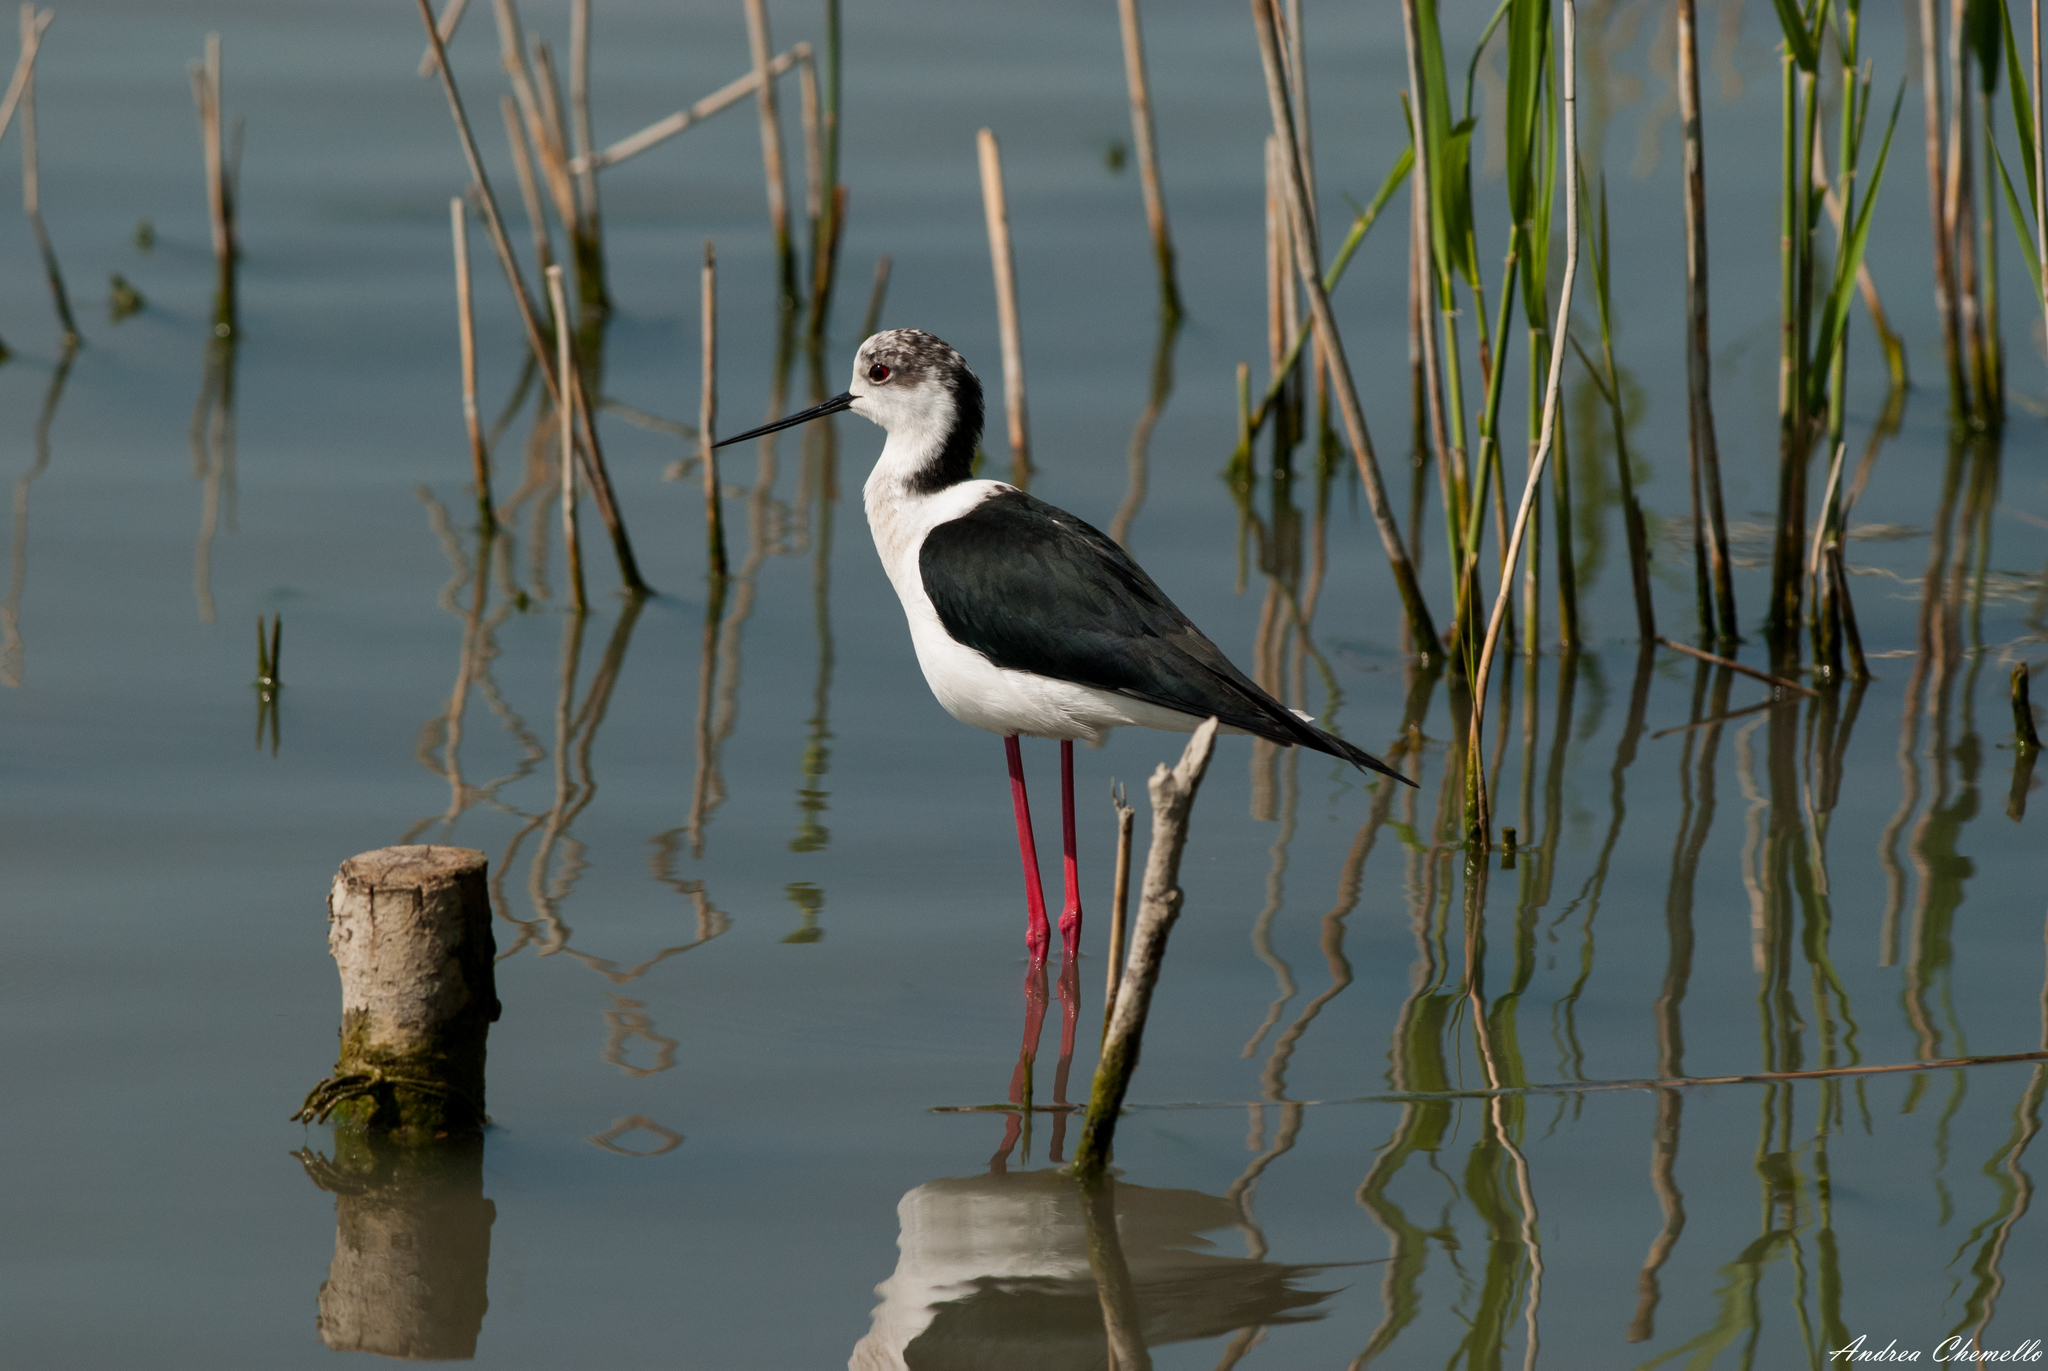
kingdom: Animalia
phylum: Chordata
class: Aves
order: Charadriiformes
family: Recurvirostridae
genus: Himantopus
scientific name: Himantopus himantopus
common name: Black-winged stilt
